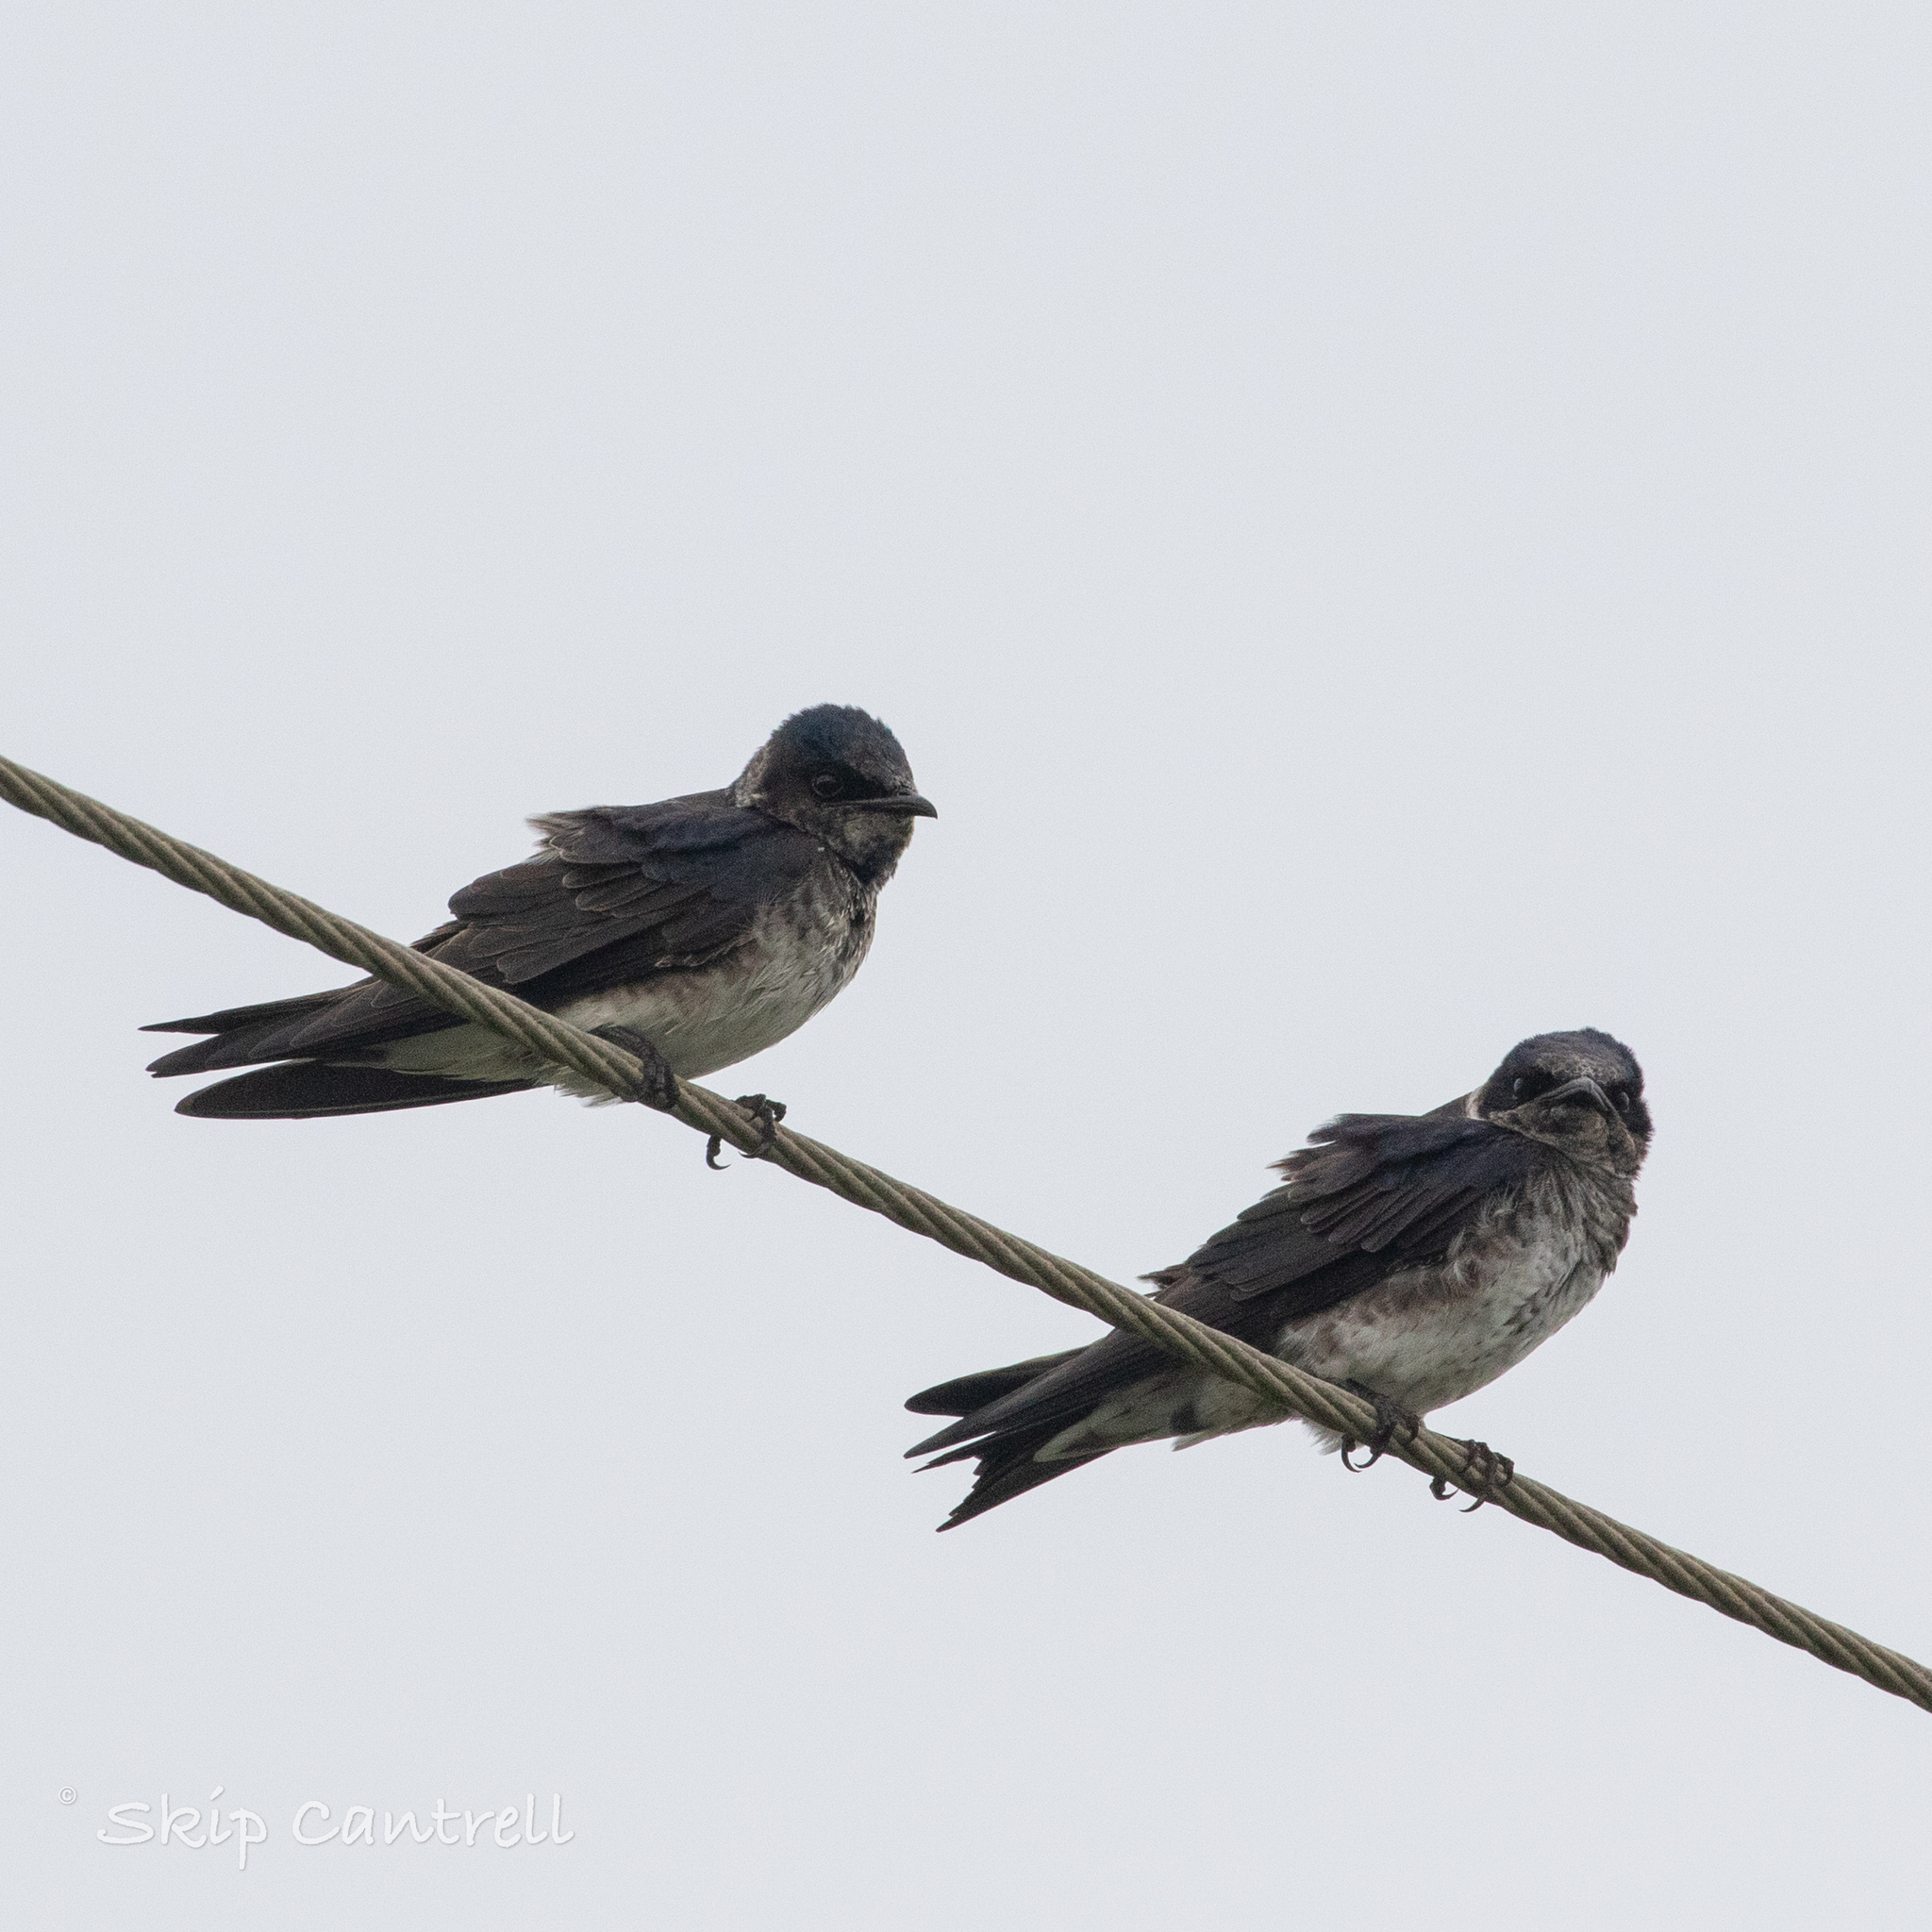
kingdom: Animalia
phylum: Chordata
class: Aves
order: Passeriformes
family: Hirundinidae
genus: Progne
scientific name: Progne subis
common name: Purple martin
